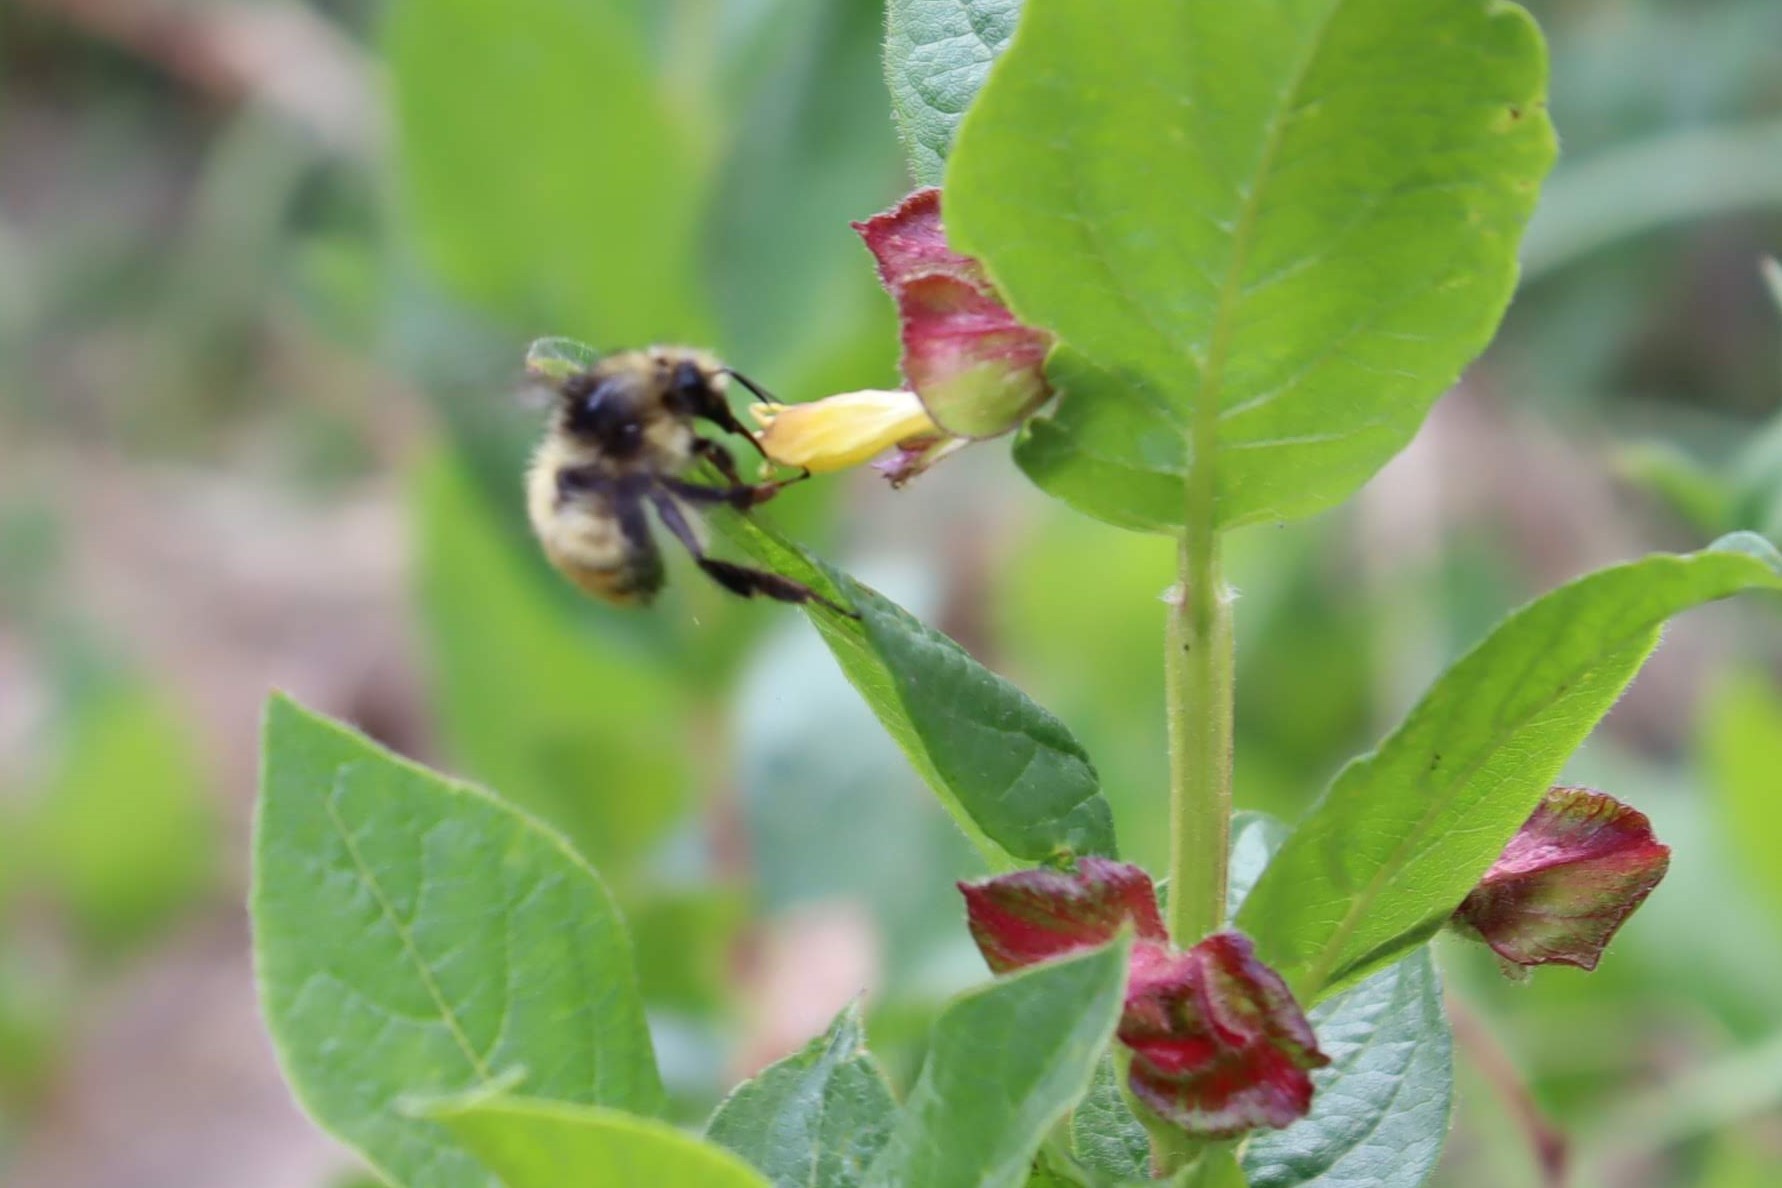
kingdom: Animalia
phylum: Arthropoda
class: Insecta
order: Hymenoptera
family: Apidae
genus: Bombus
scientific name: Bombus flavifrons
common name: Yellow head bumble bee
